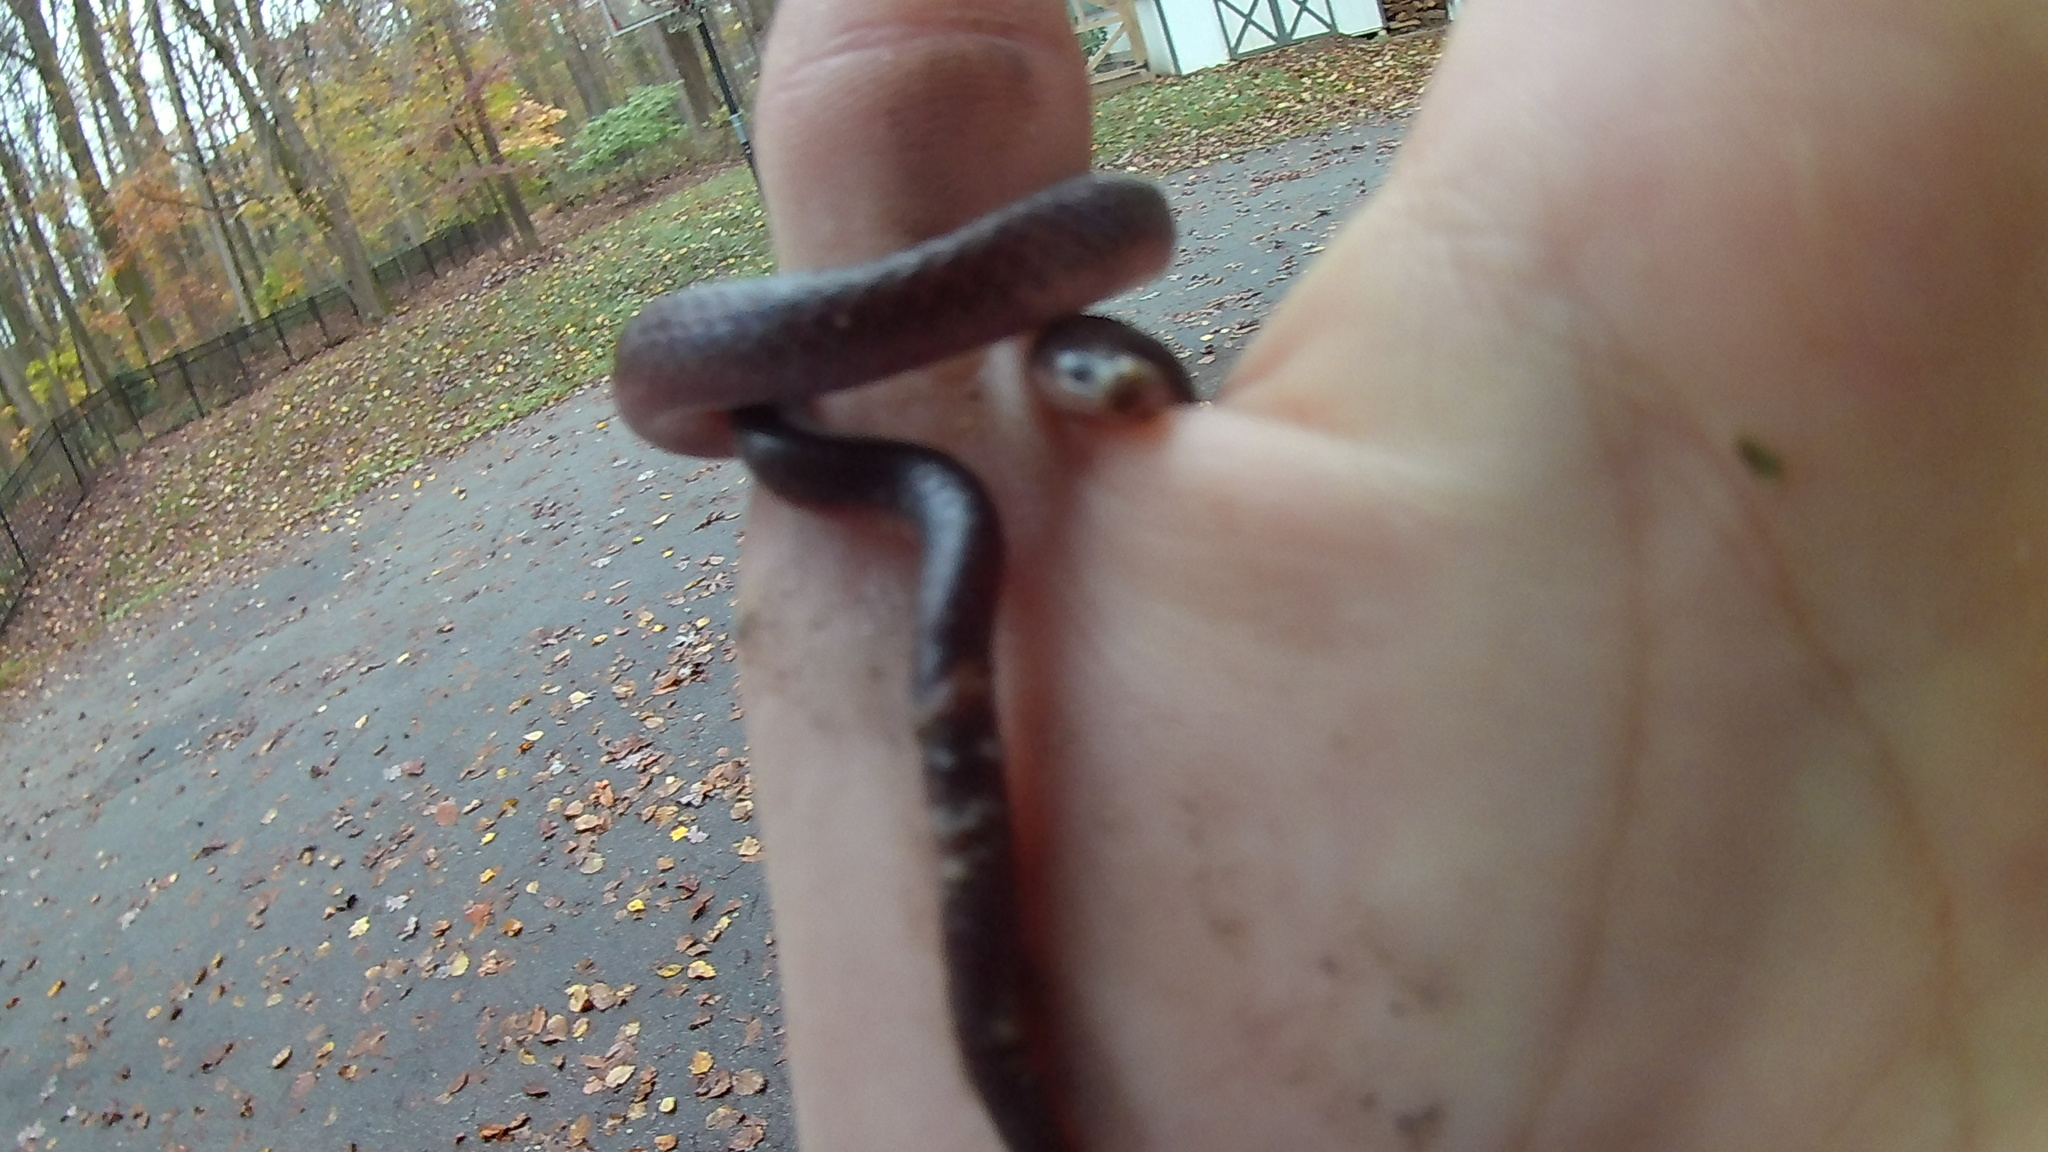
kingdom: Animalia
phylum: Chordata
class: Squamata
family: Colubridae
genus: Carphophis
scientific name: Carphophis amoenus
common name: Eastern worm snake
